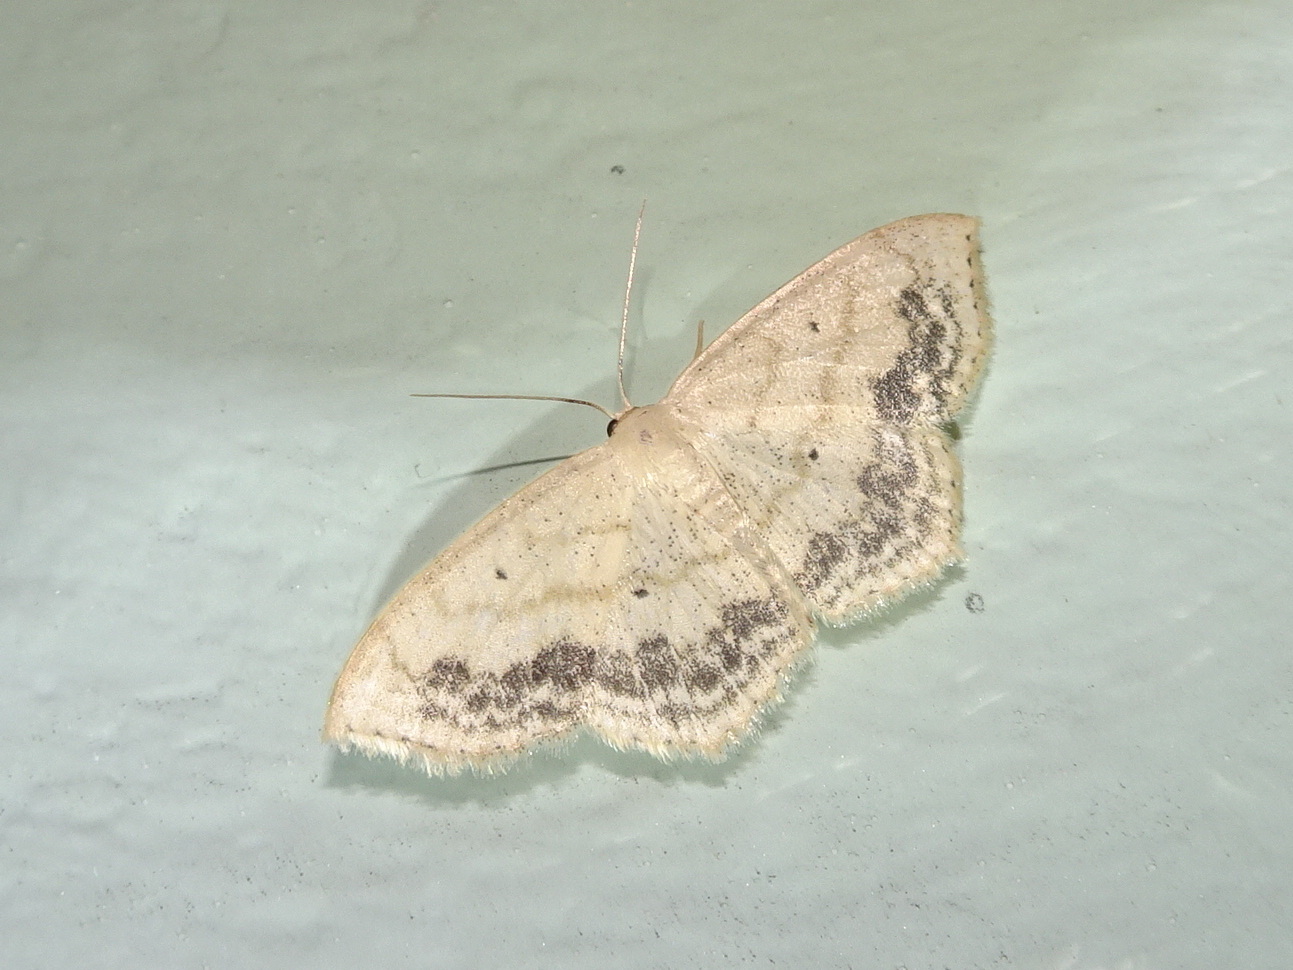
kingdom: Animalia
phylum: Arthropoda
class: Insecta
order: Lepidoptera
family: Geometridae
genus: Scopula
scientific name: Scopula limboundata
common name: Large lace border
